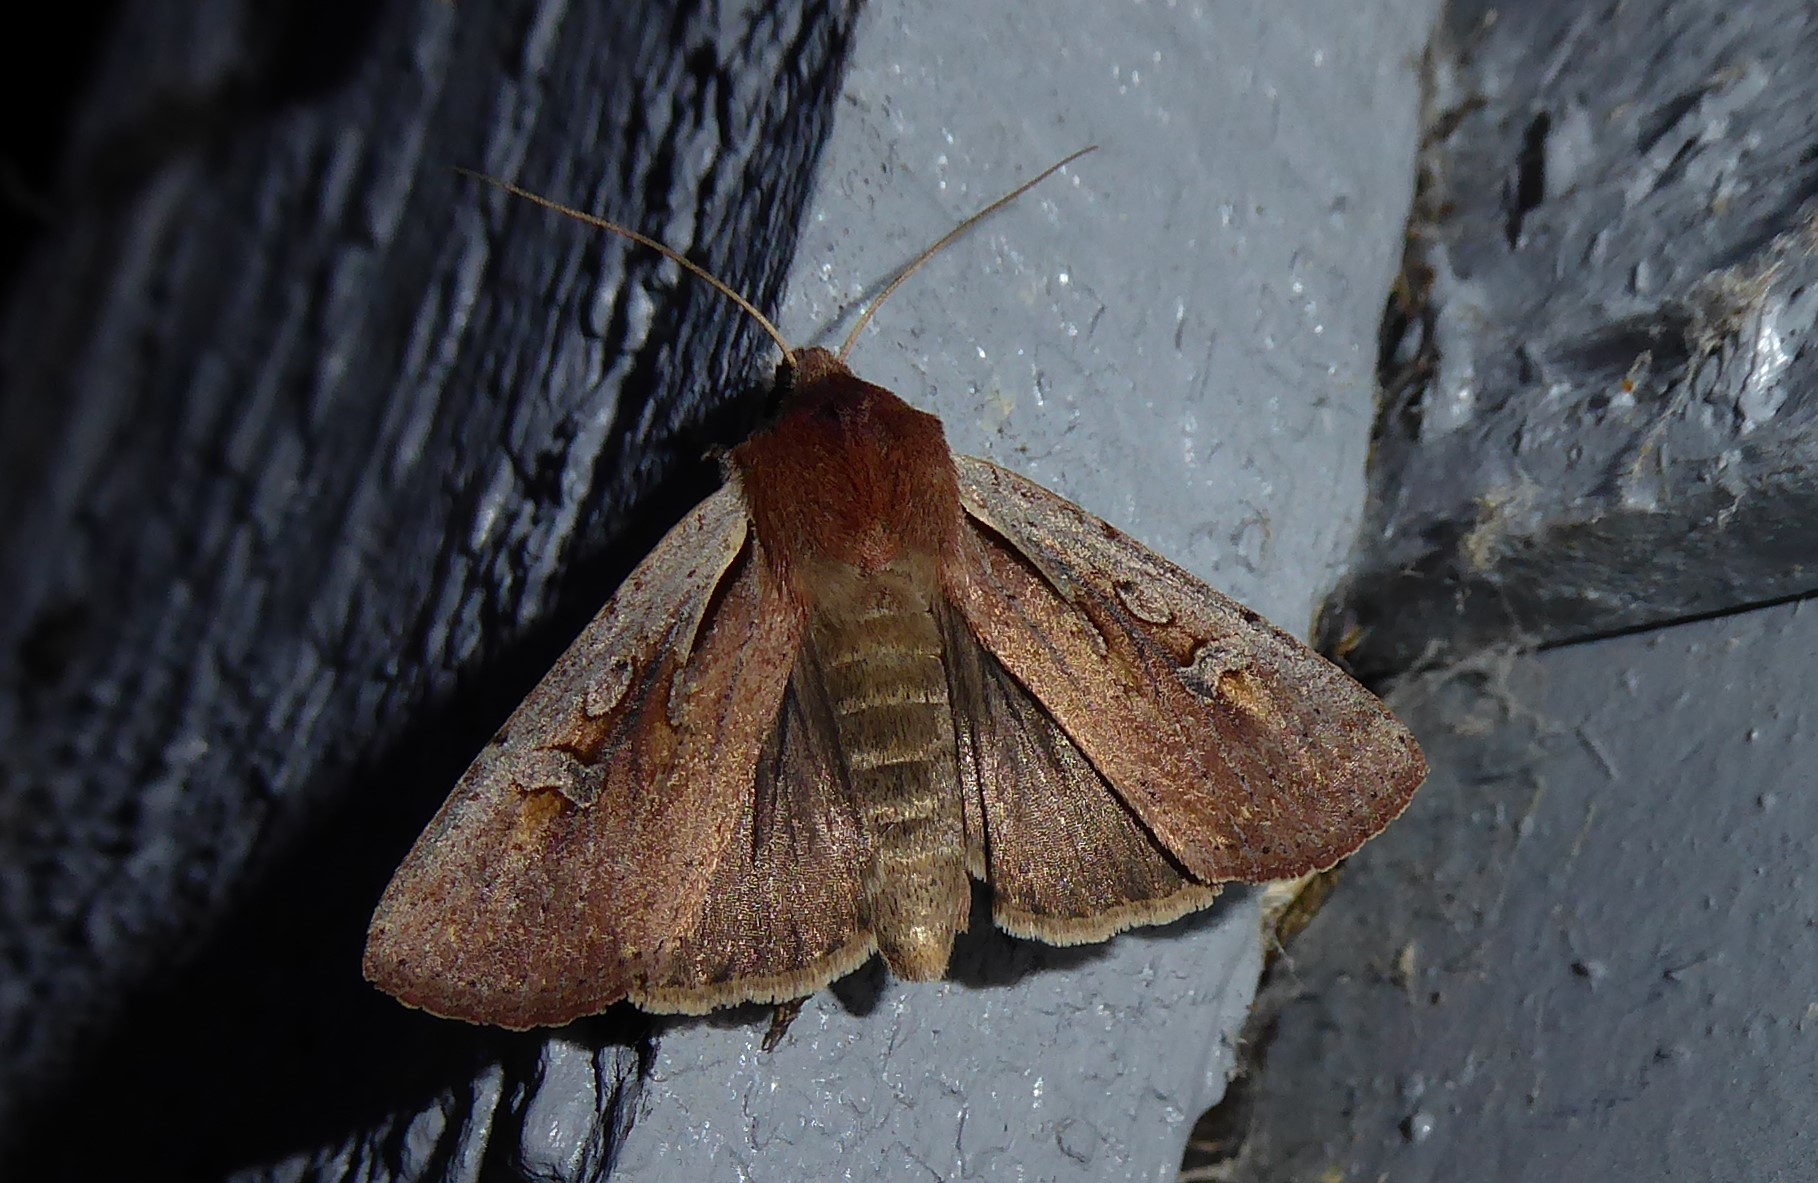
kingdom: Animalia
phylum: Arthropoda
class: Insecta
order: Lepidoptera
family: Noctuidae
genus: Ichneutica
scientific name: Ichneutica atristriga
